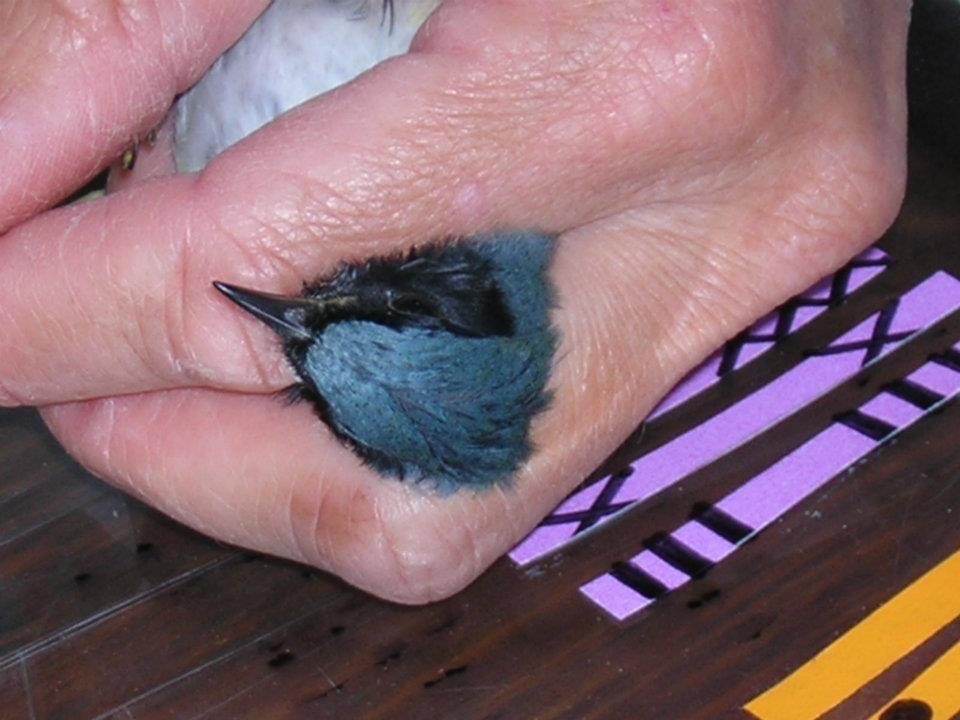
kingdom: Animalia
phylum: Chordata
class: Aves
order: Passeriformes
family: Parulidae
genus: Setophaga
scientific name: Setophaga caerulescens
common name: Black-throated blue warbler
